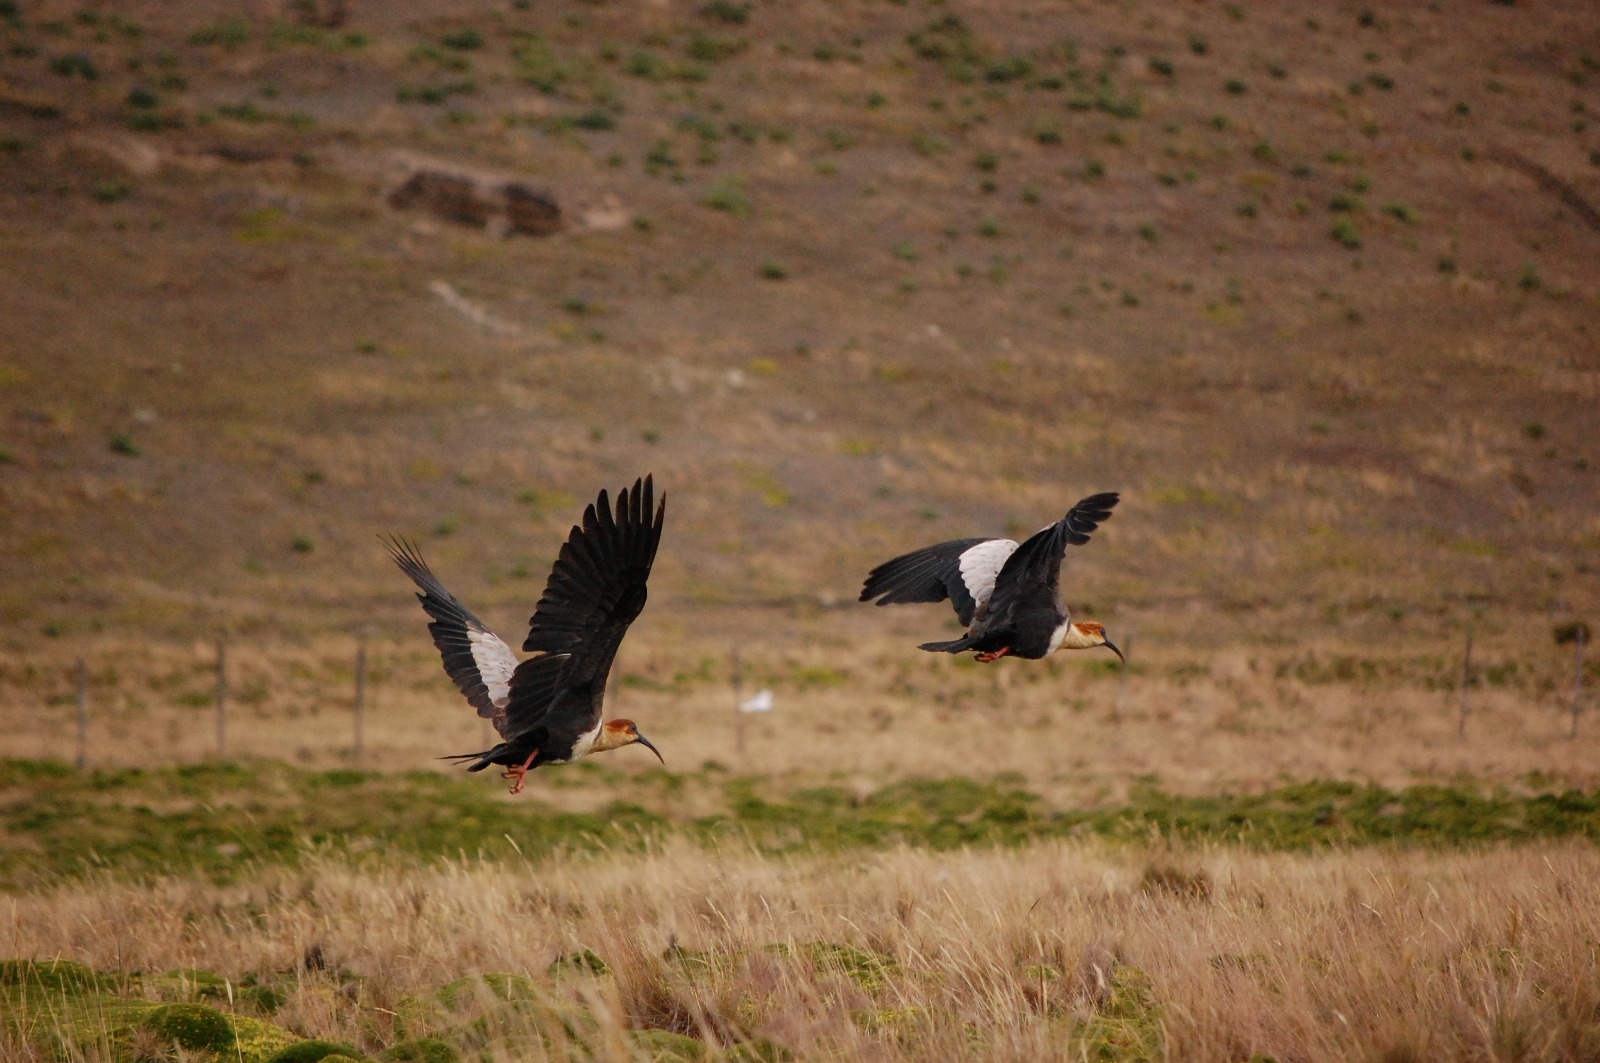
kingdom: Animalia
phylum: Chordata
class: Aves
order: Pelecaniformes
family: Threskiornithidae
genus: Theristicus
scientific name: Theristicus melanopis
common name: Black-faced ibis
